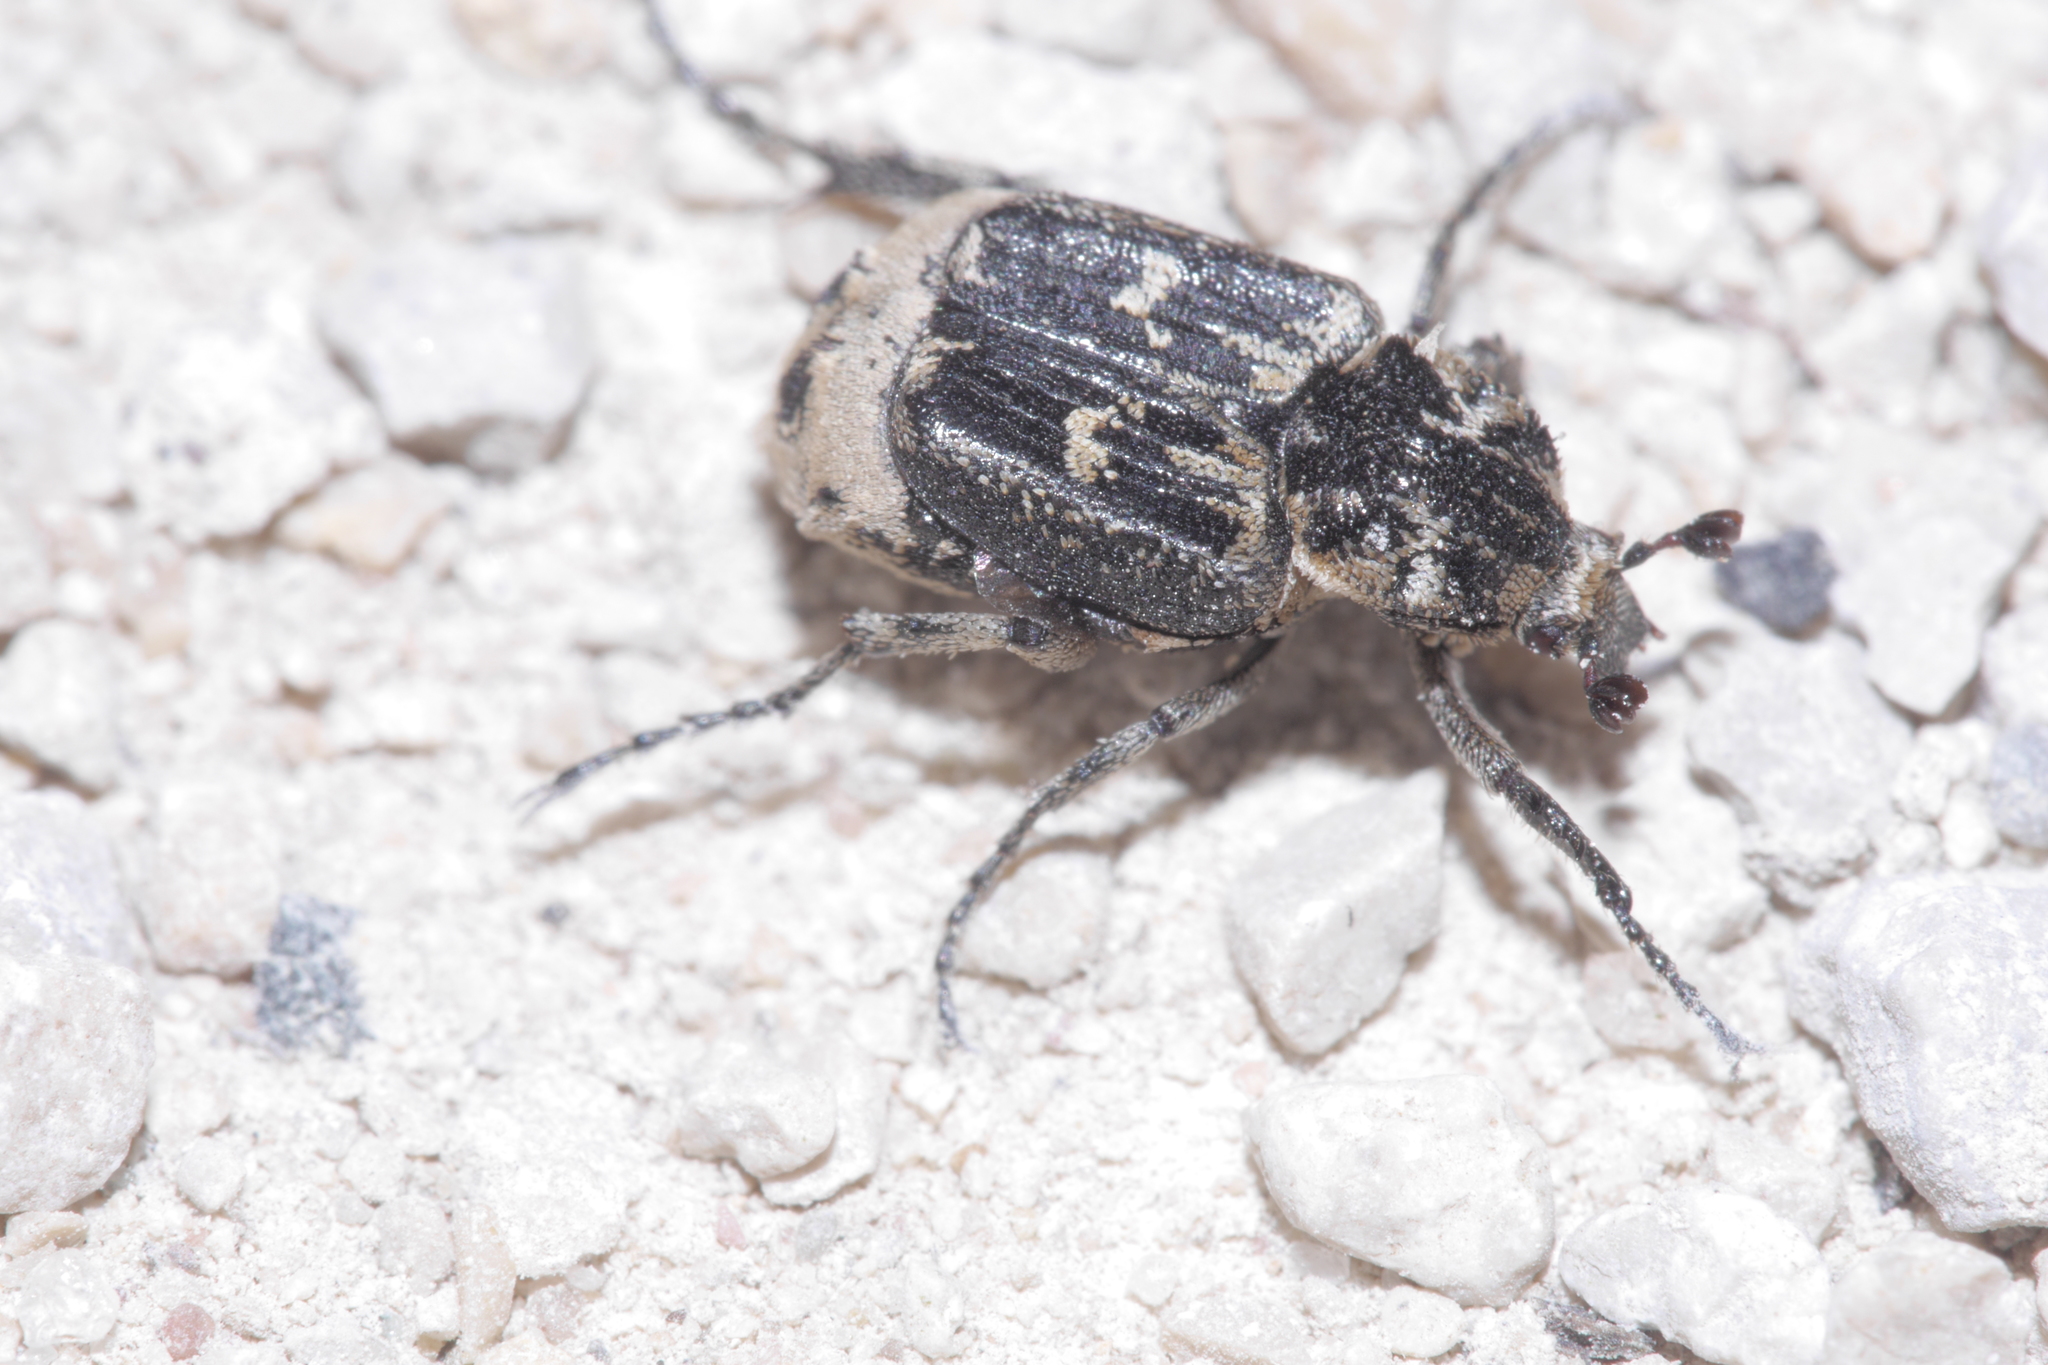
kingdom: Animalia
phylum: Arthropoda
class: Insecta
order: Coleoptera
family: Scarabaeidae
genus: Valgus
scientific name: Valgus hemipterus
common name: Bug flower chafer
